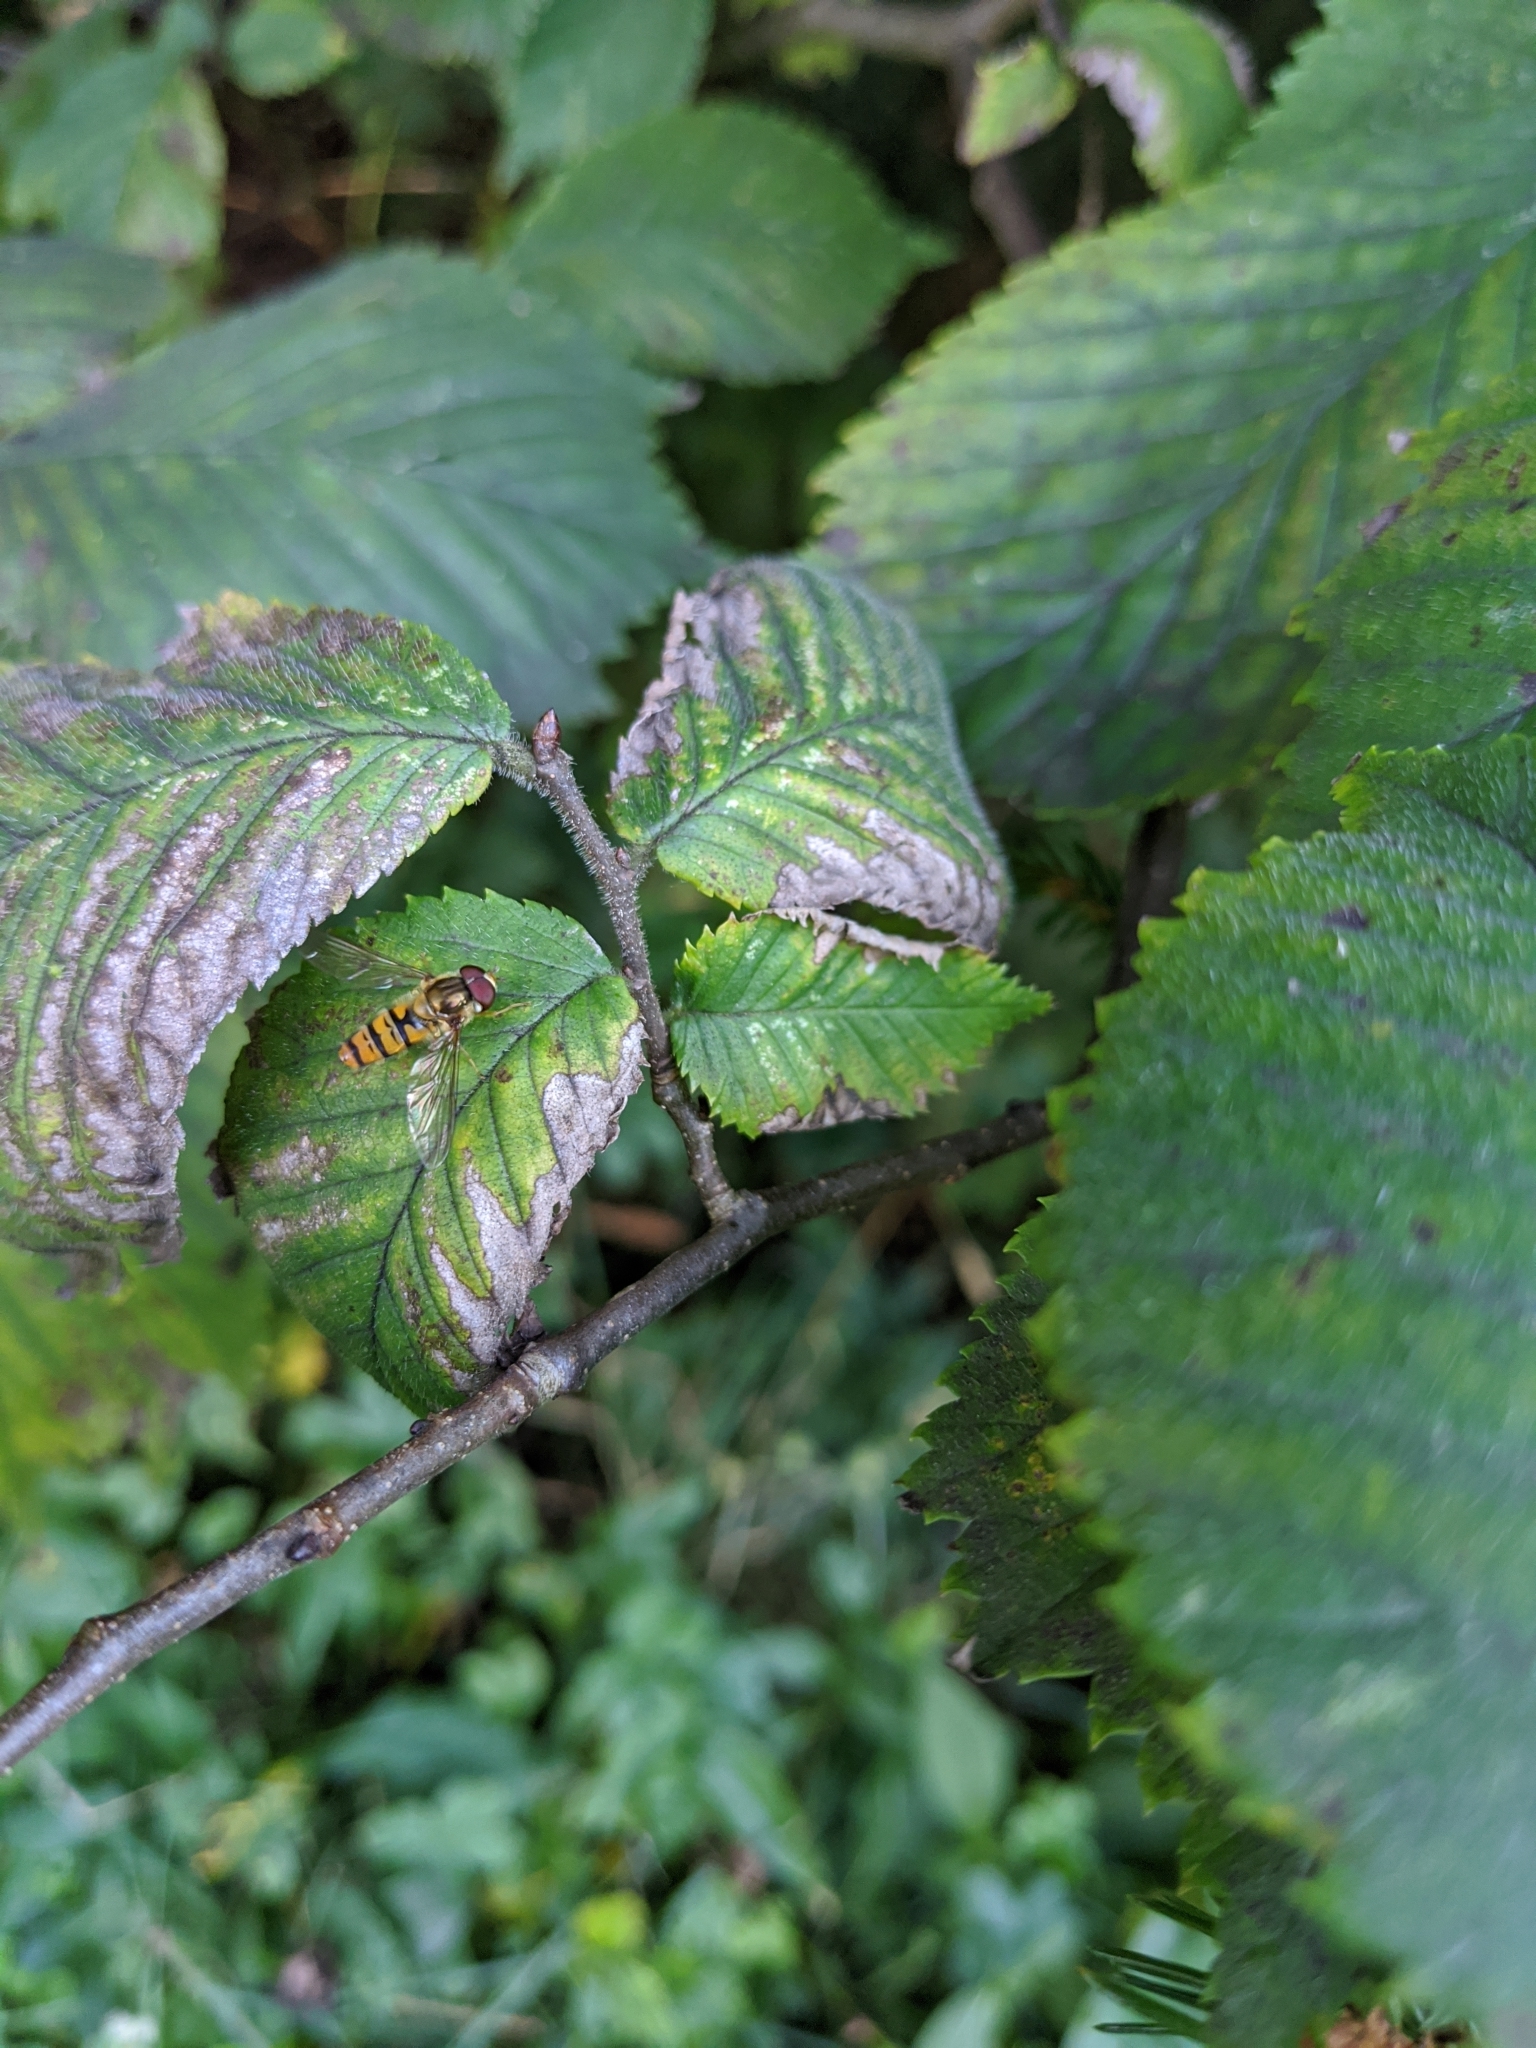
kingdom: Animalia
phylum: Arthropoda
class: Insecta
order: Diptera
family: Syrphidae
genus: Episyrphus
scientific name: Episyrphus balteatus
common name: Marmalade hoverfly
